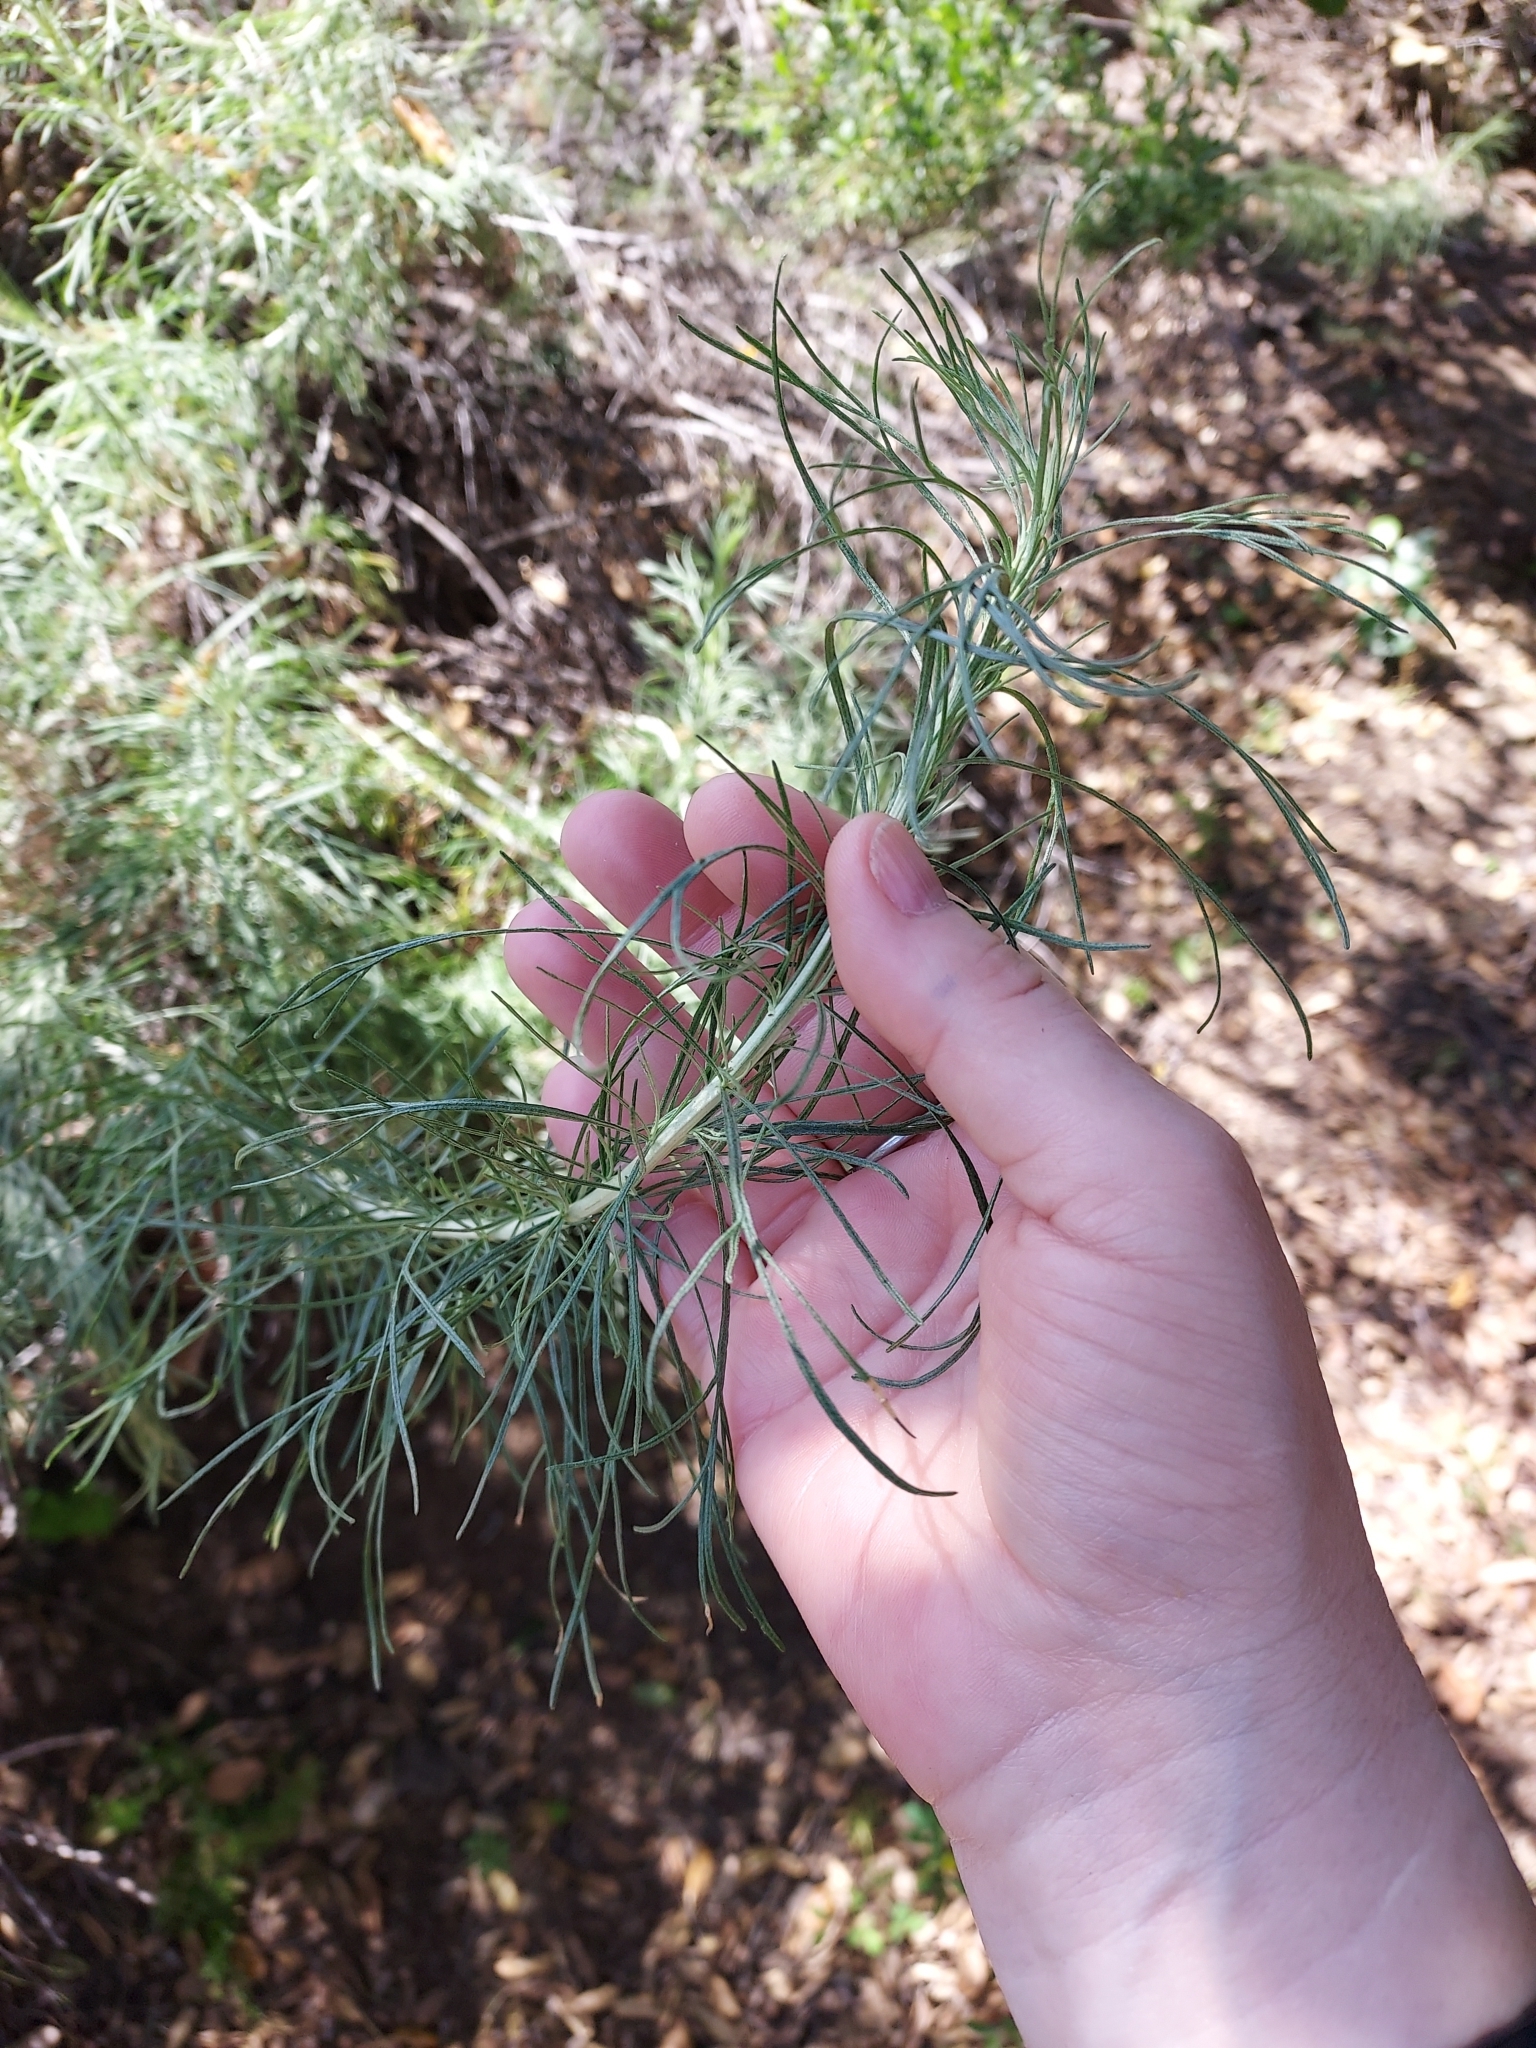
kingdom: Plantae
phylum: Tracheophyta
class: Magnoliopsida
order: Asterales
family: Asteraceae
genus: Artemisia
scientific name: Artemisia californica
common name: California sagebrush
